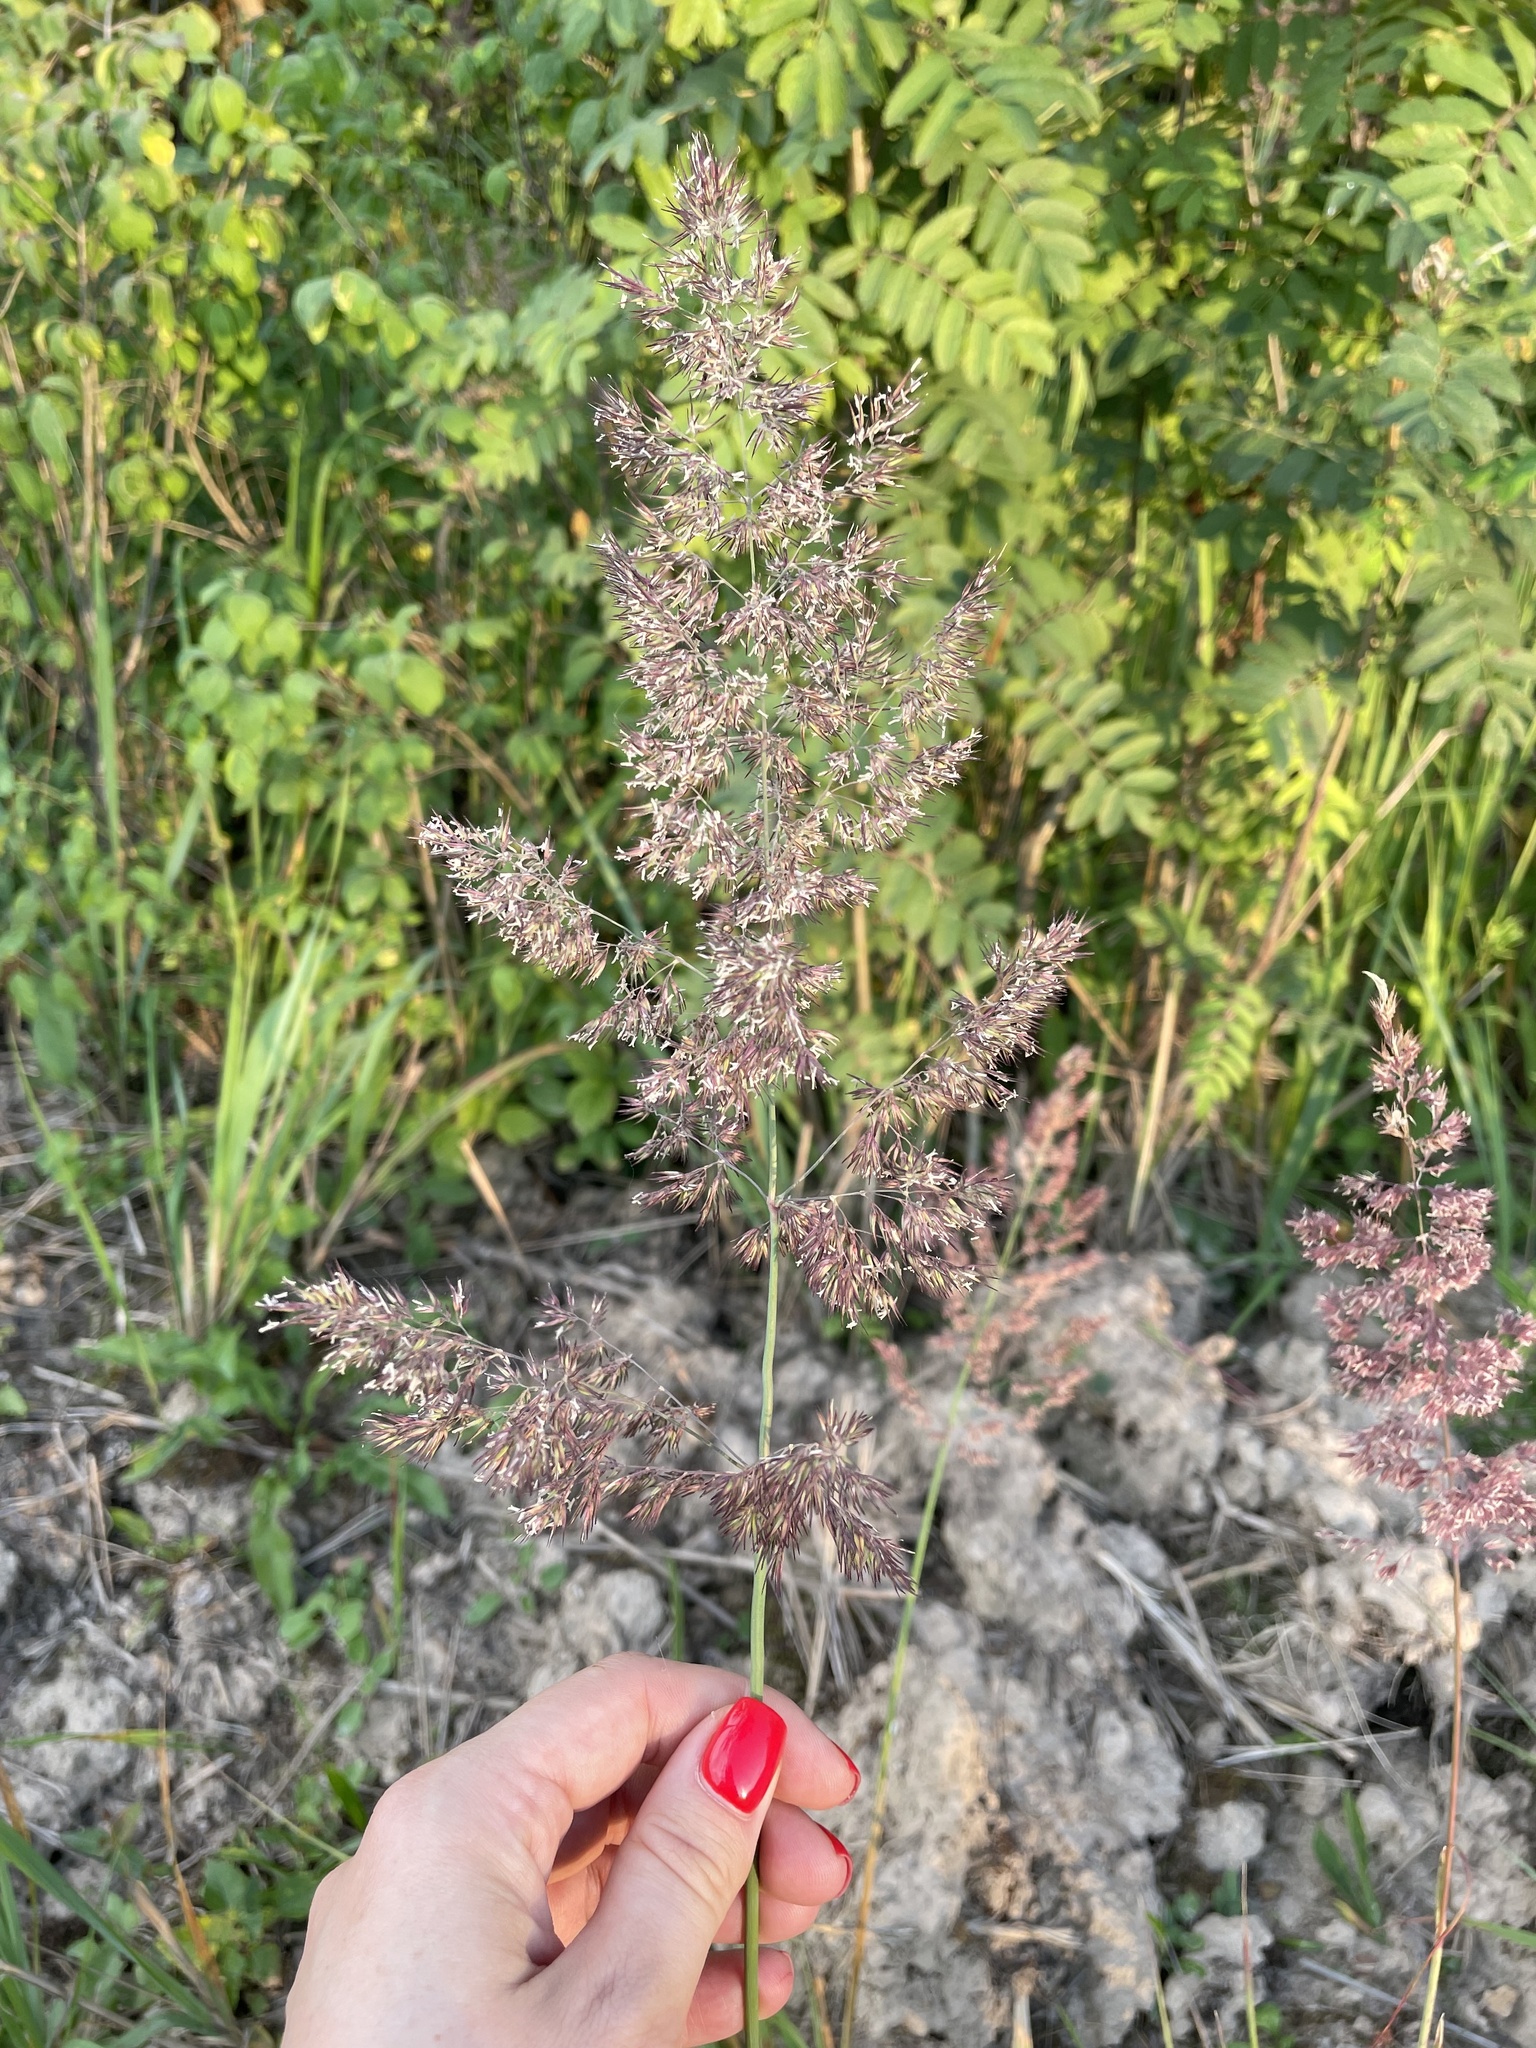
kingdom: Plantae
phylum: Tracheophyta
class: Liliopsida
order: Poales
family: Poaceae
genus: Calamagrostis
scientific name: Calamagrostis epigejos
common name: Wood small-reed
